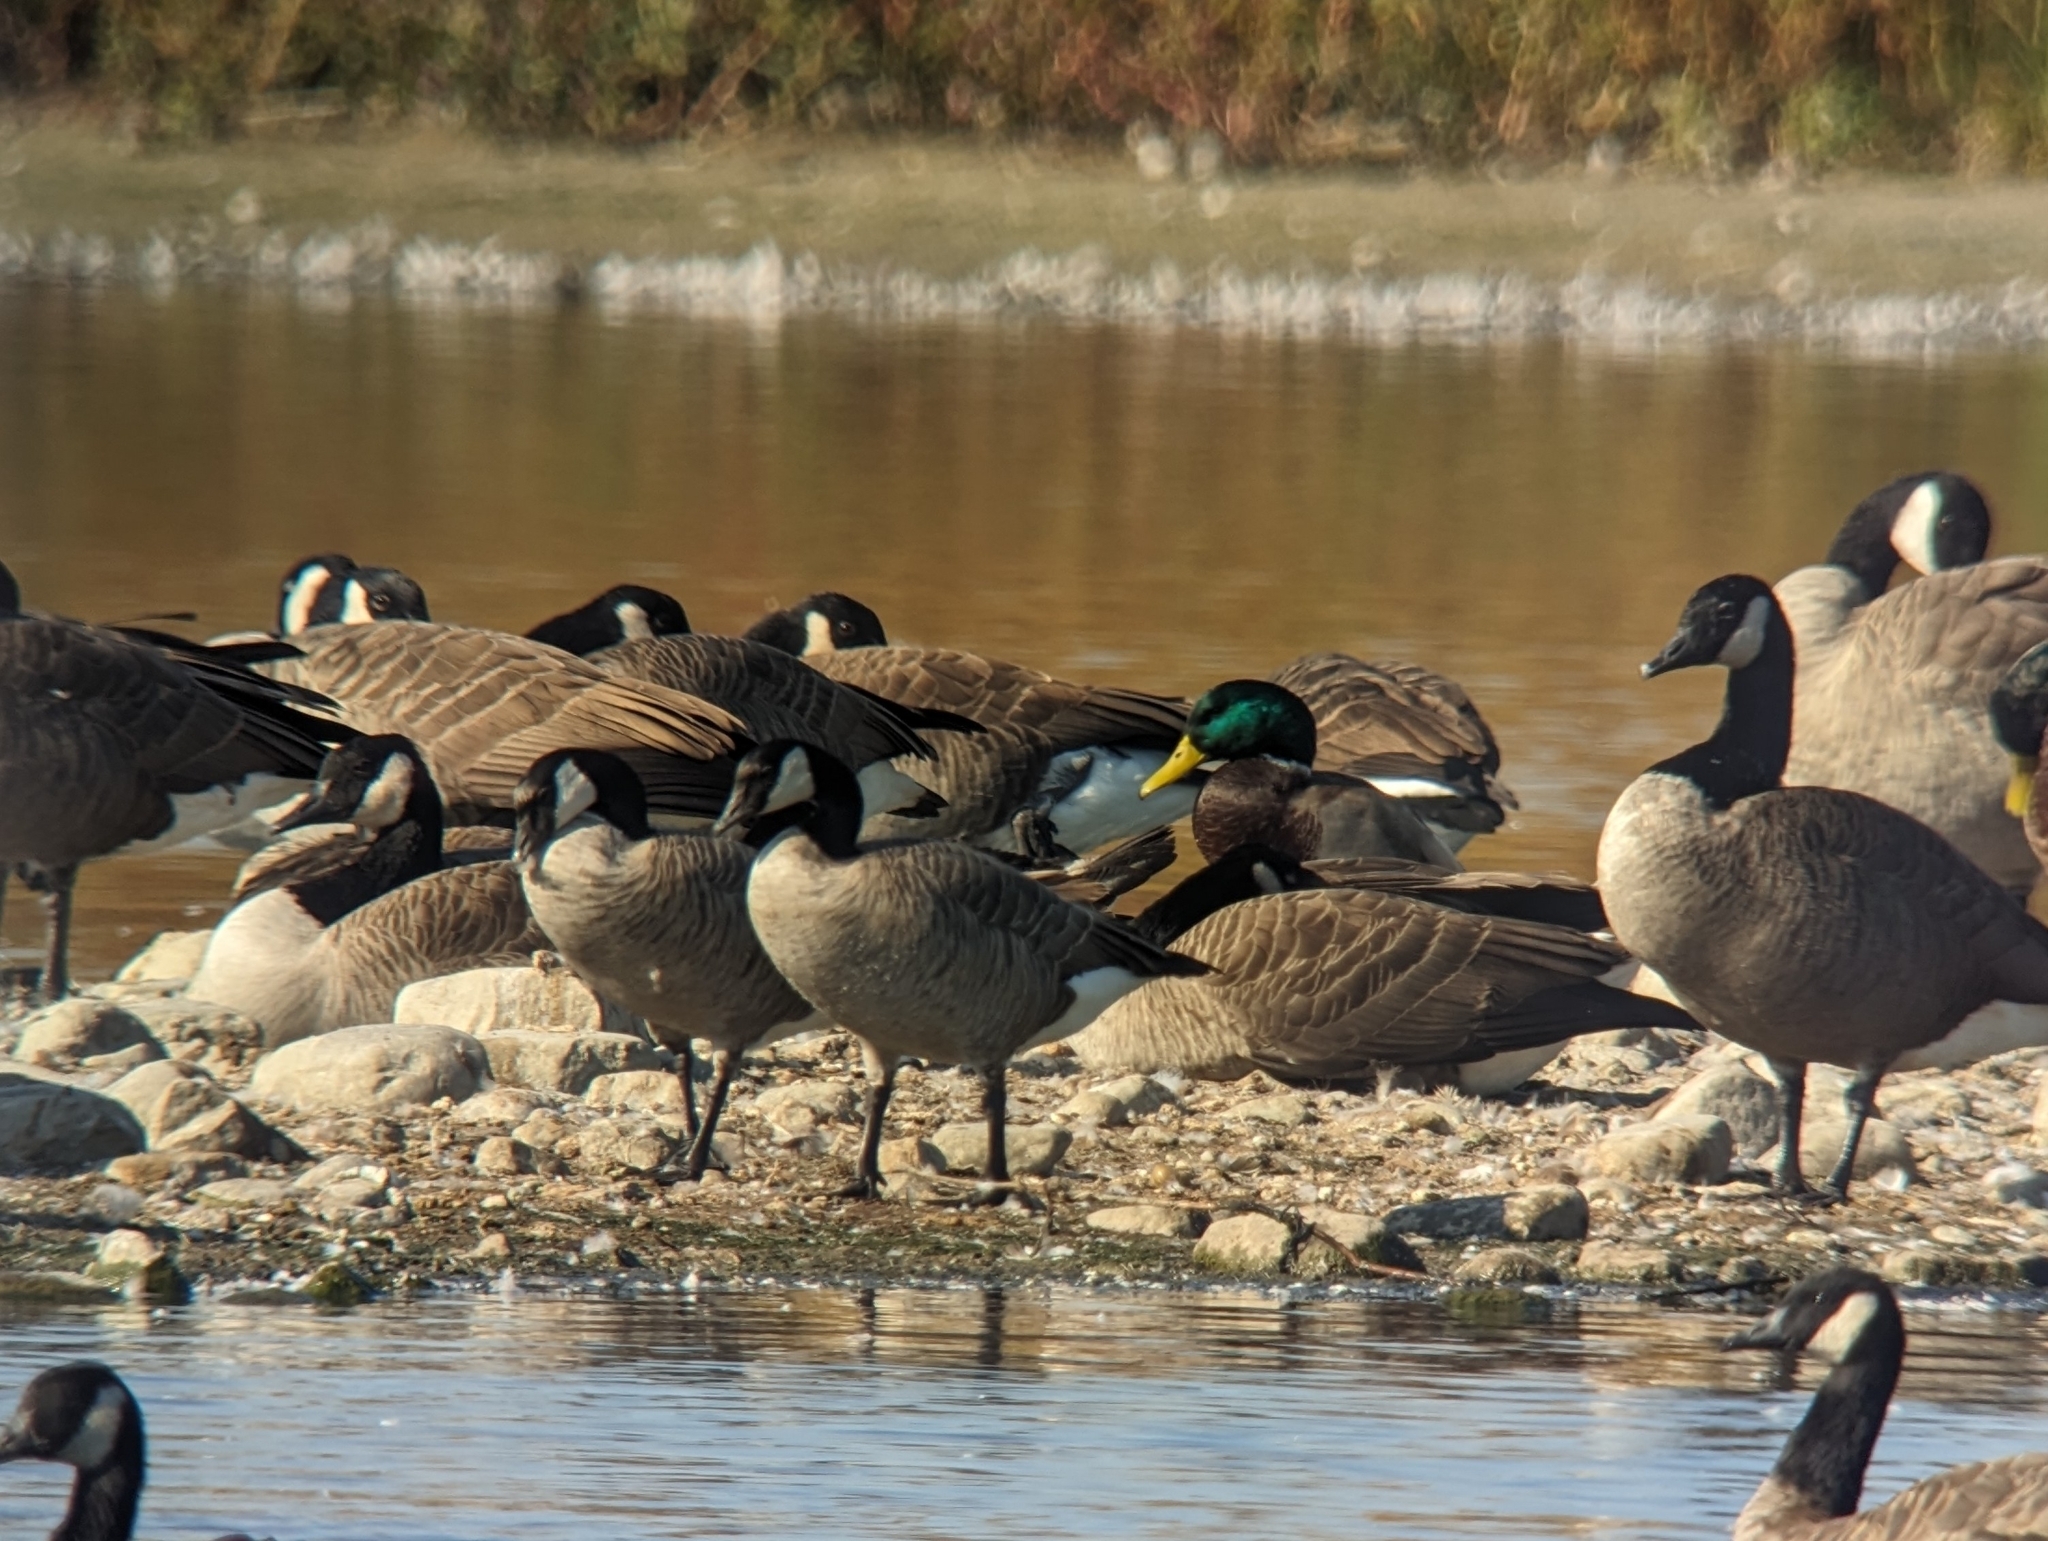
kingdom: Animalia
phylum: Chordata
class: Aves
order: Anseriformes
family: Anatidae
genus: Branta
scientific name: Branta hutchinsii
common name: Cackling goose
